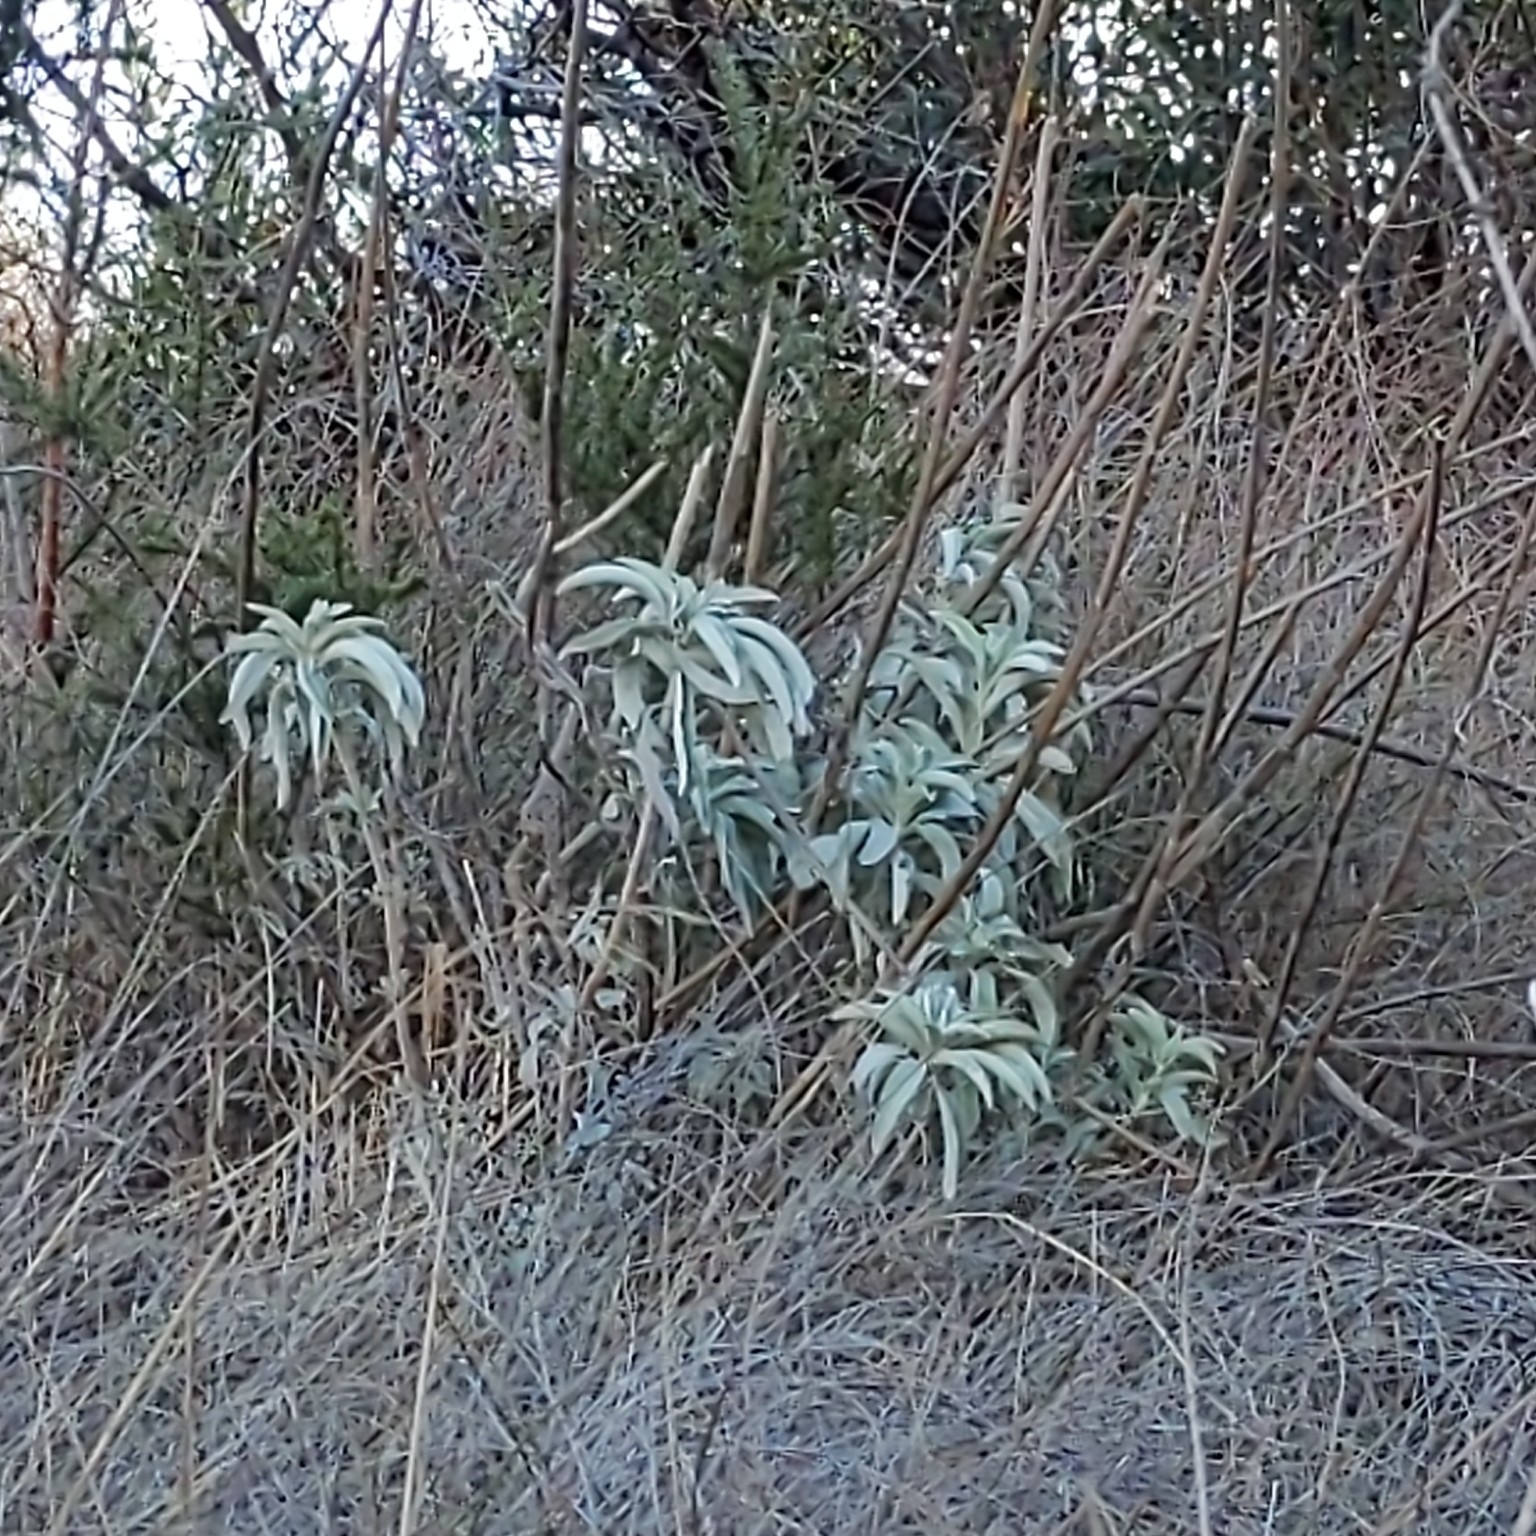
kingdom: Plantae
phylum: Tracheophyta
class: Magnoliopsida
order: Lamiales
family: Lamiaceae
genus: Salvia
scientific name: Salvia apiana
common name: White sage
